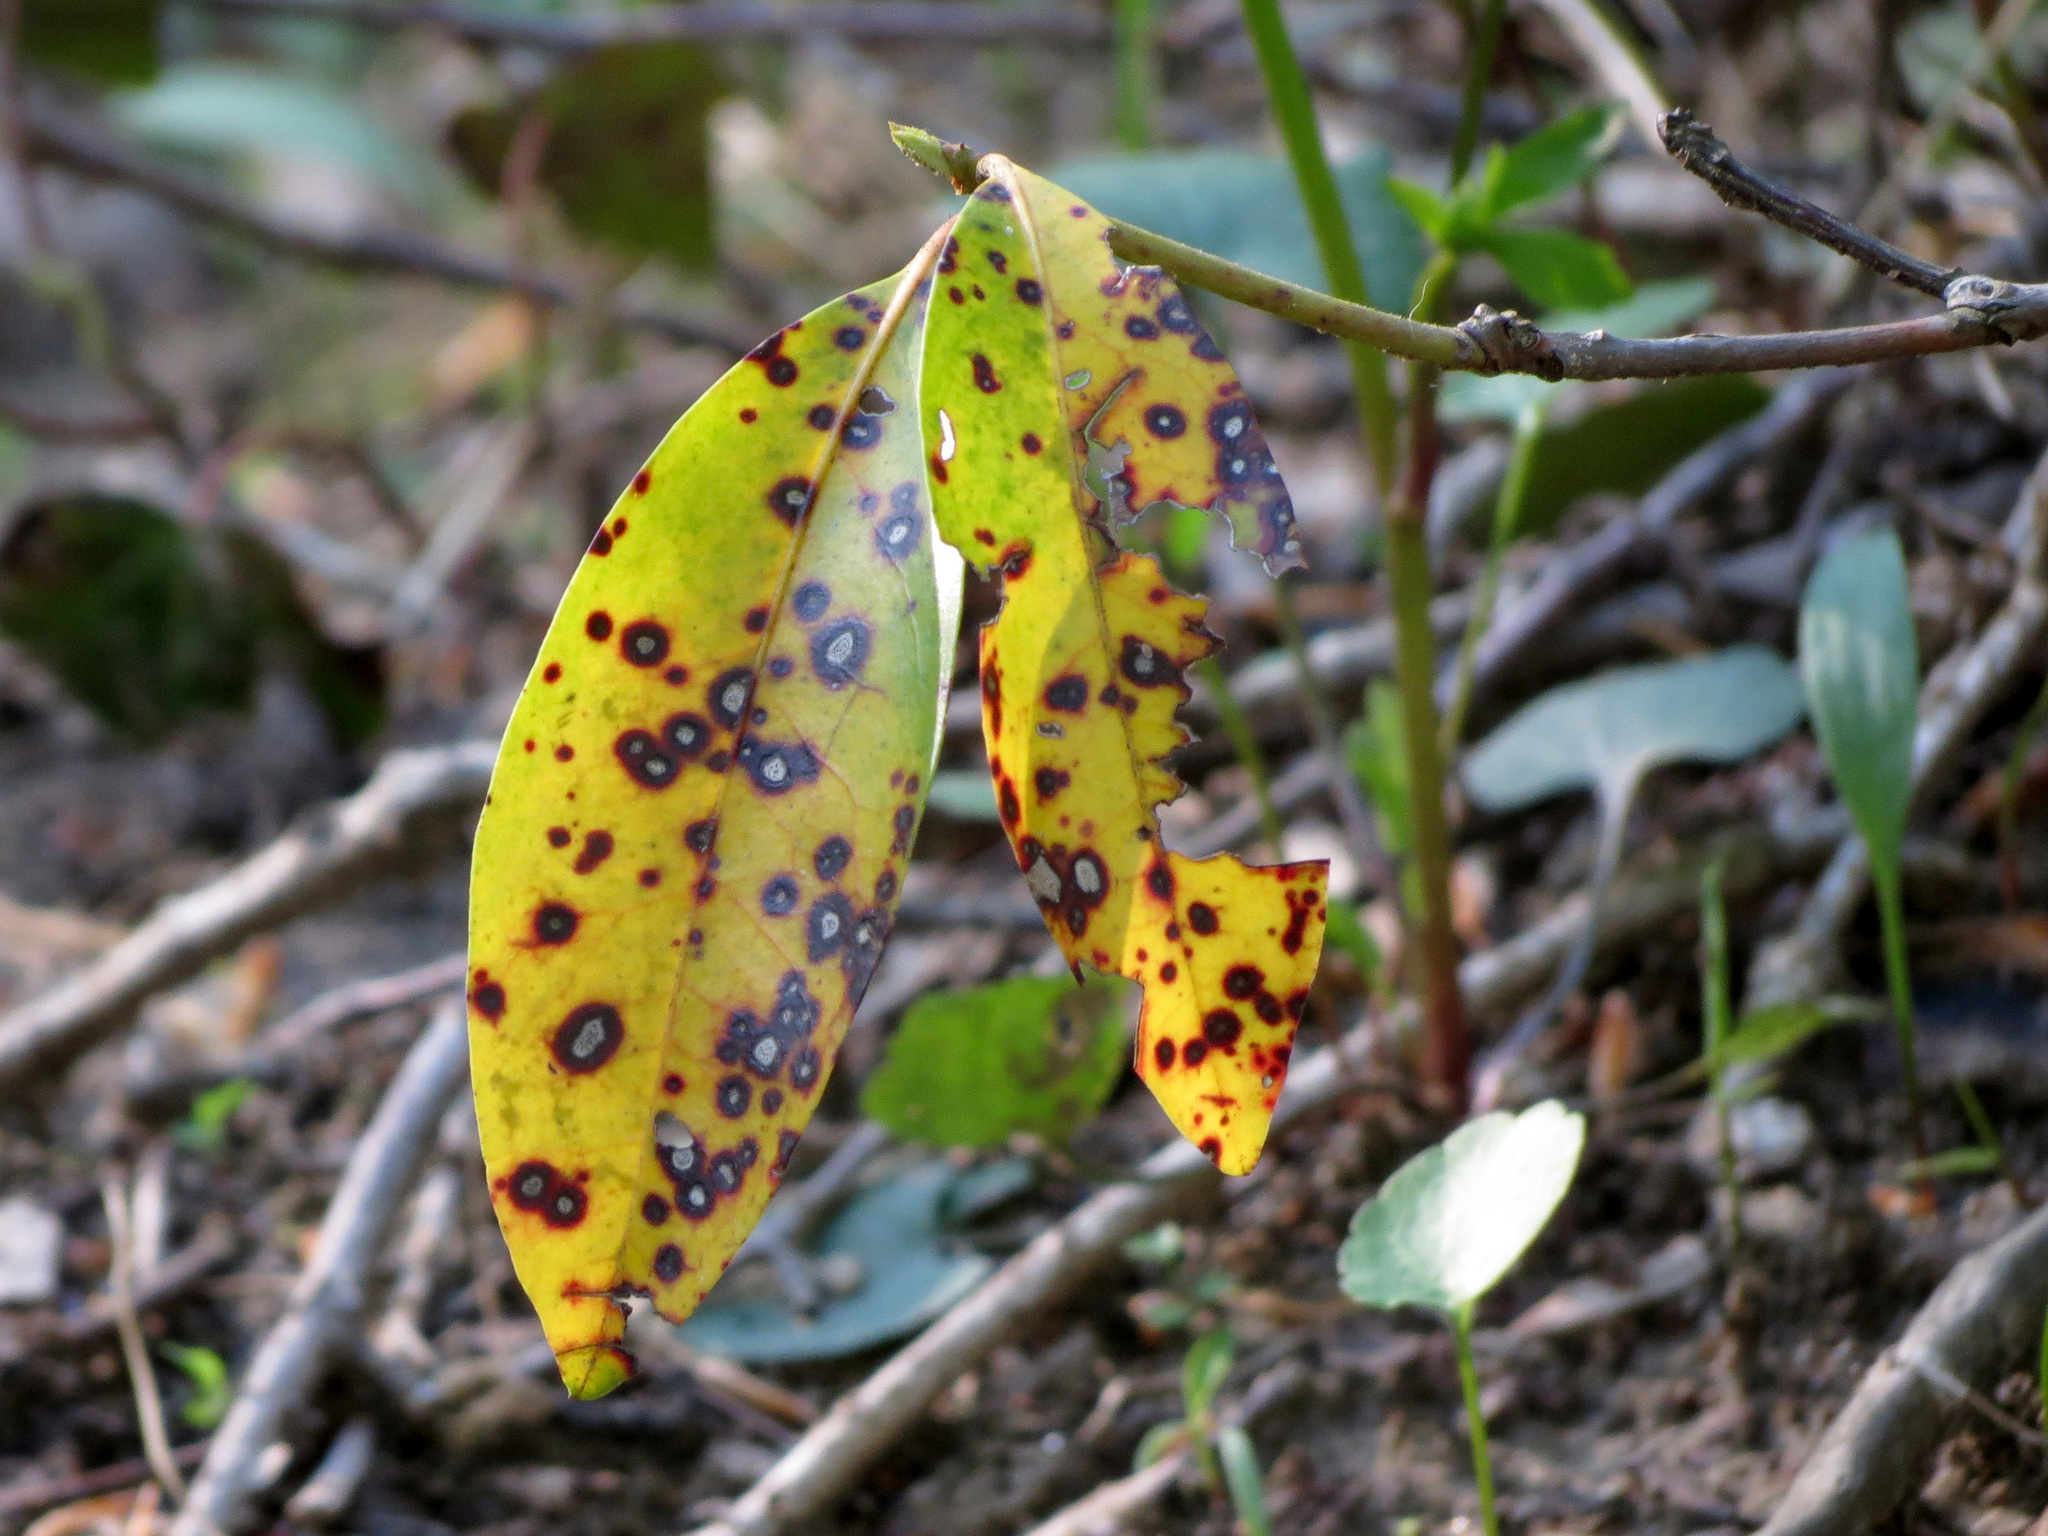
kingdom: Fungi
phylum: Ascomycota
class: Dothideomycetes
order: Mycosphaerellales
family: Mycosphaerellaceae
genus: Mycosphaerella
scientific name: Mycosphaerella colorata
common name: Mountain laurel leaf spot
